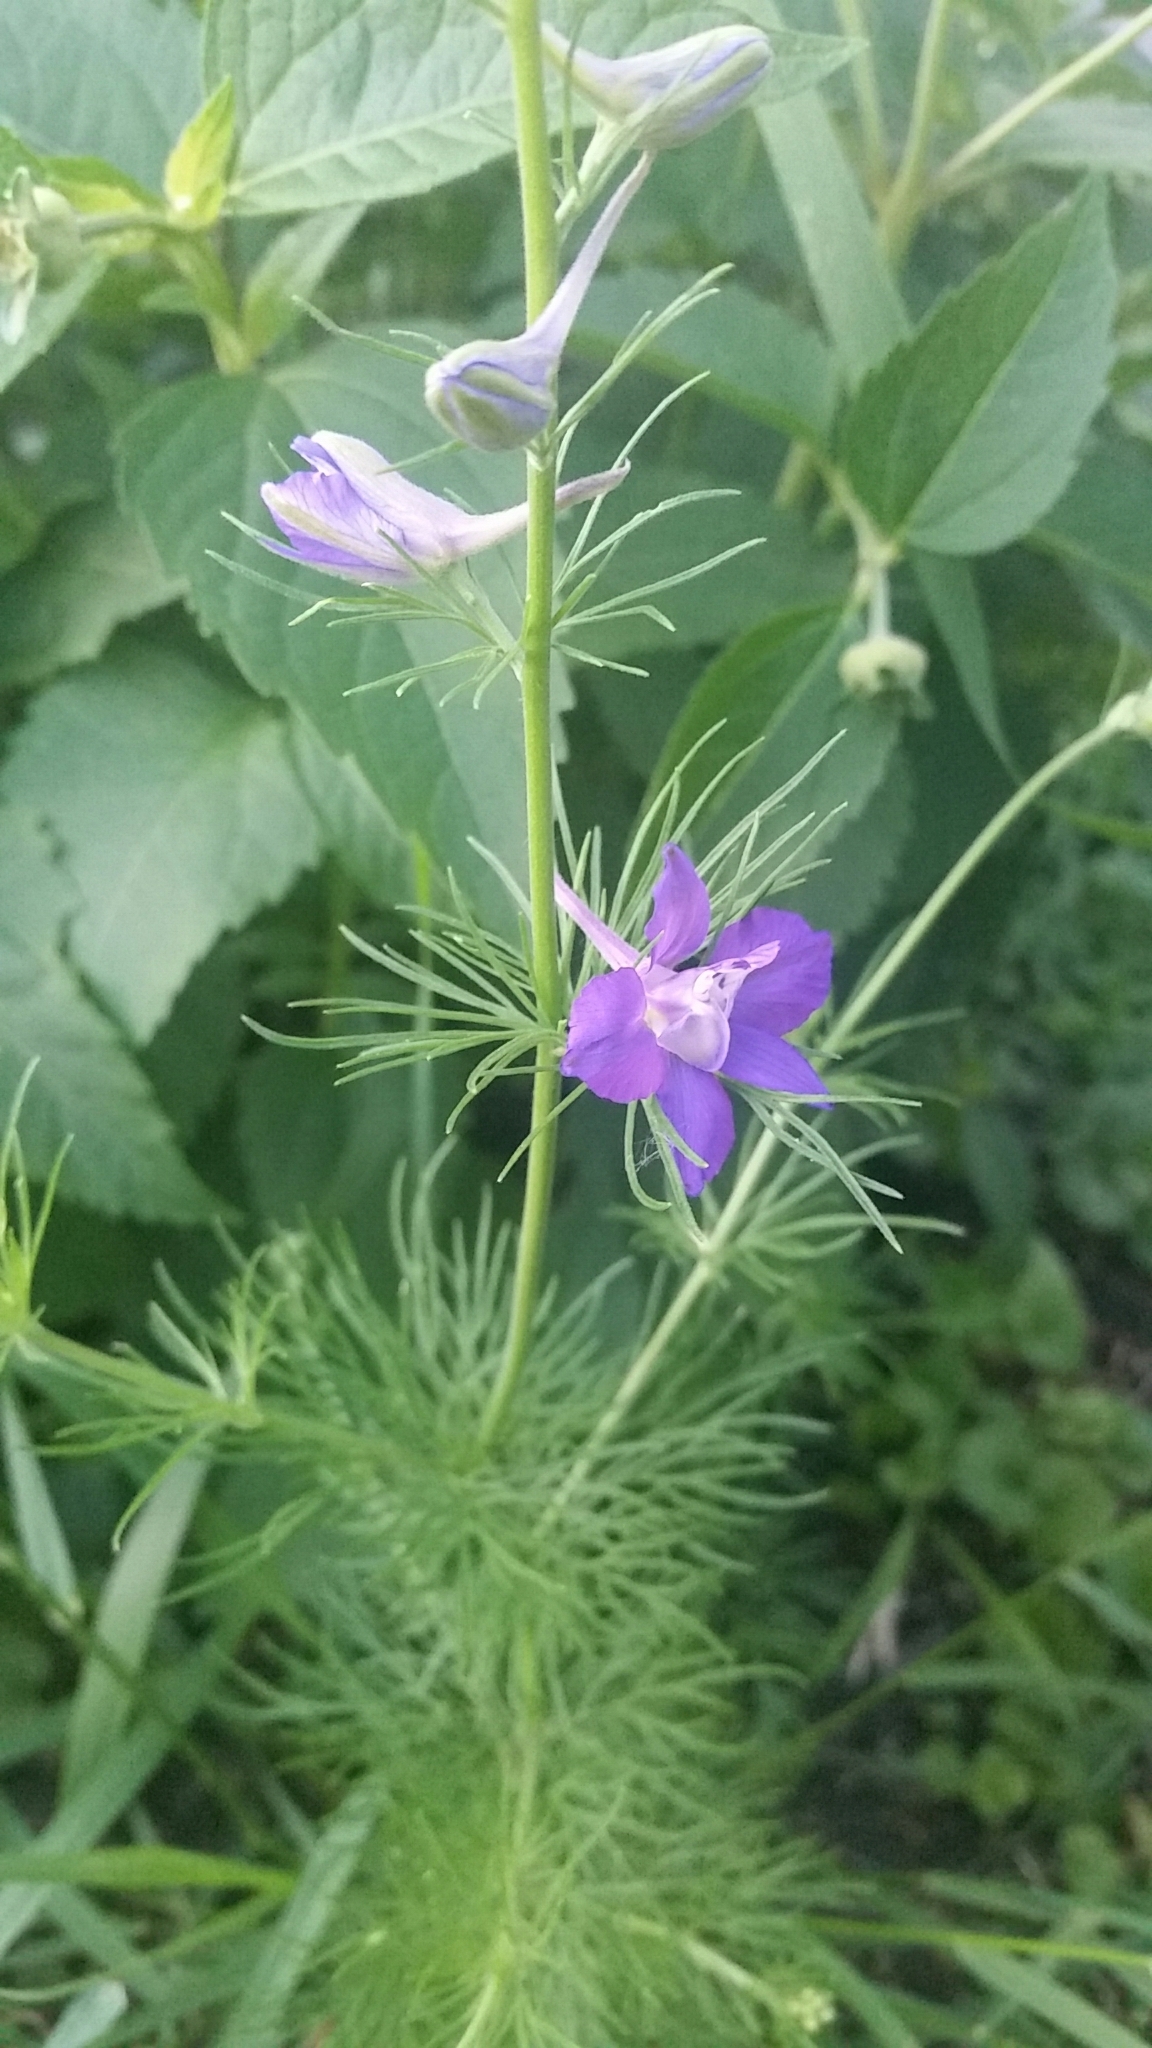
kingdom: Plantae
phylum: Tracheophyta
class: Magnoliopsida
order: Ranunculales
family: Ranunculaceae
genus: Delphinium
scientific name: Delphinium ajacis
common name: Doubtful knight's-spur
